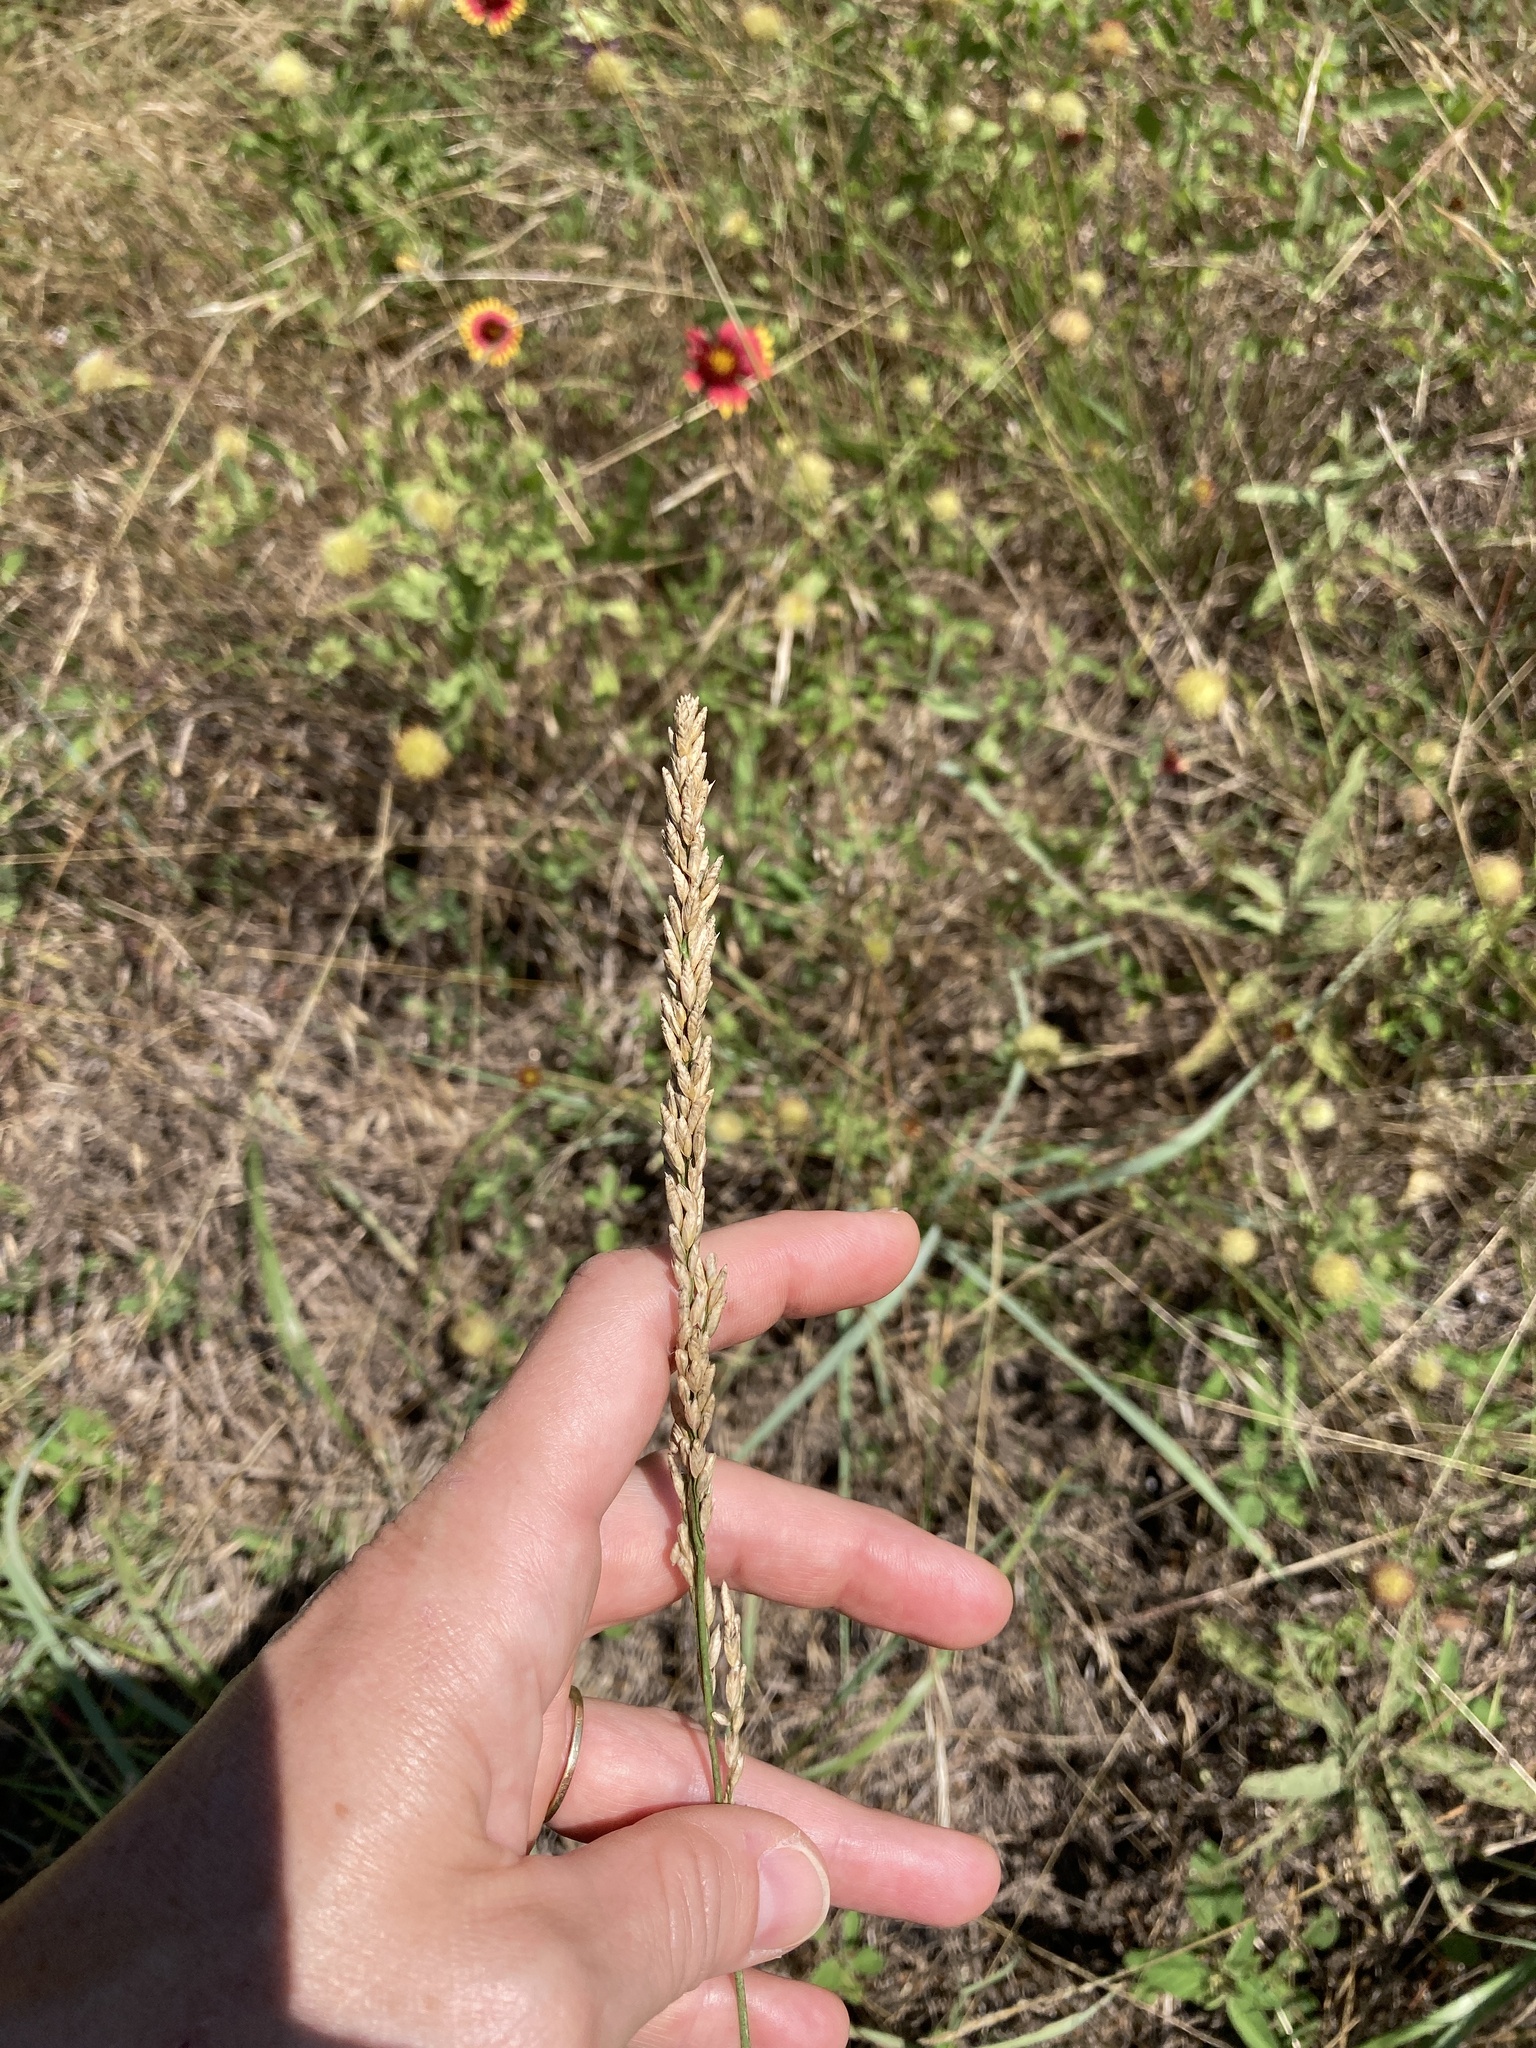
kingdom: Plantae
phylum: Tracheophyta
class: Liliopsida
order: Poales
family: Poaceae
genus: Tridens
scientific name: Tridens albescens
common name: White tridens
